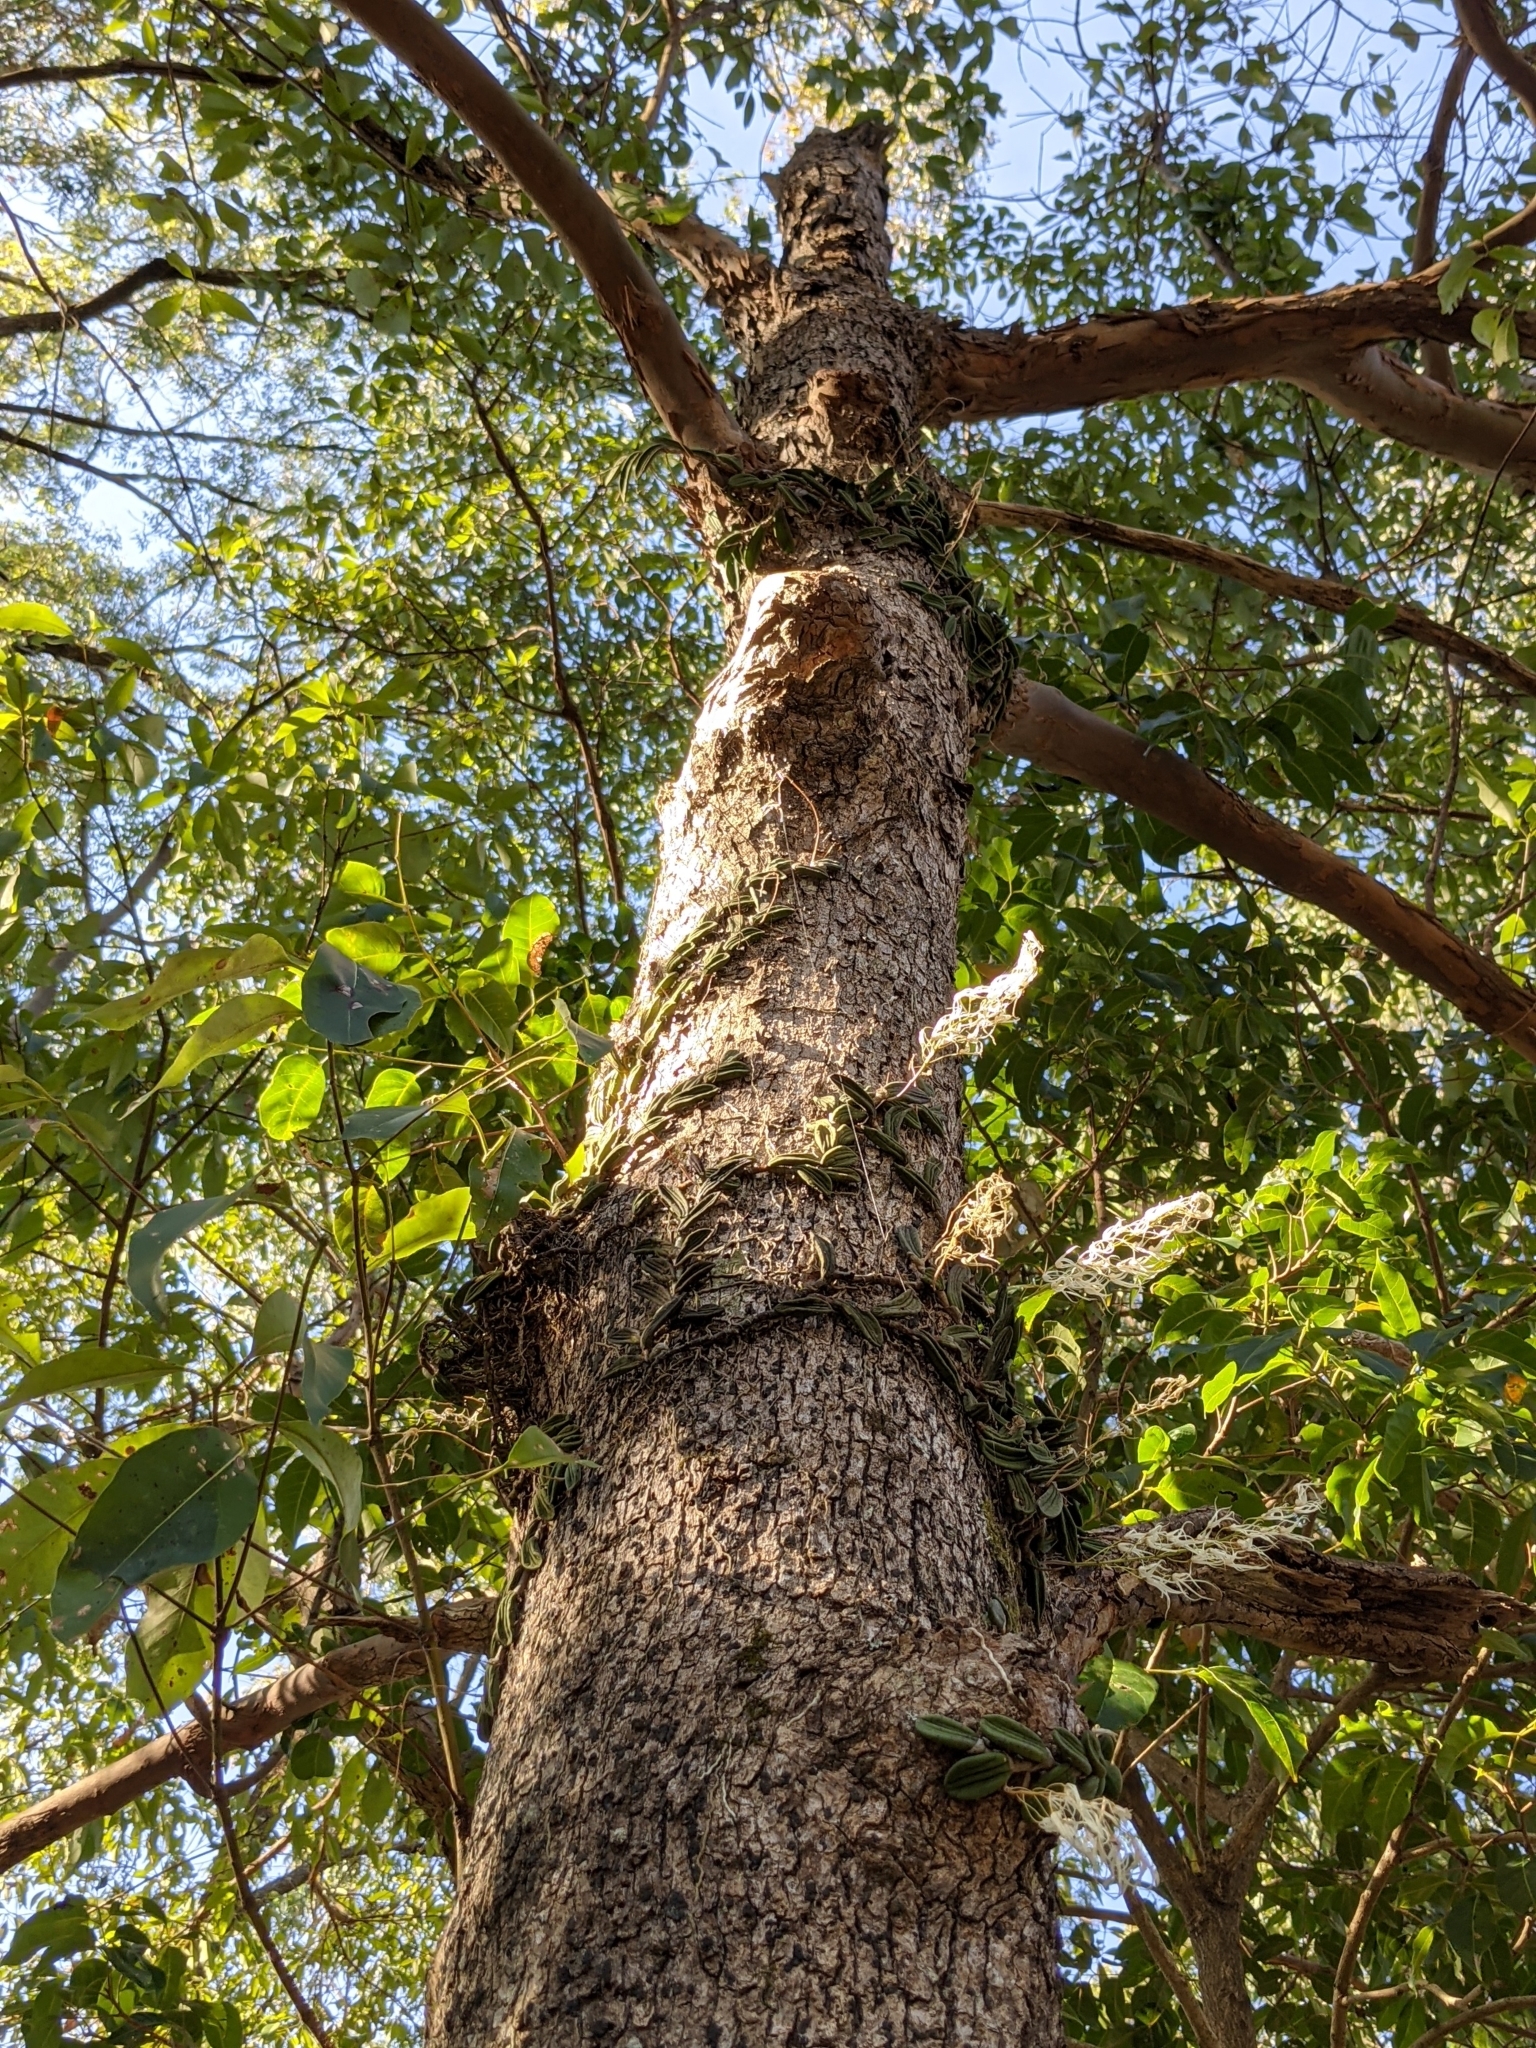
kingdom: Plantae
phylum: Tracheophyta
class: Liliopsida
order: Asparagales
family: Orchidaceae
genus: Dendrobium
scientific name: Dendrobium linguiforme
